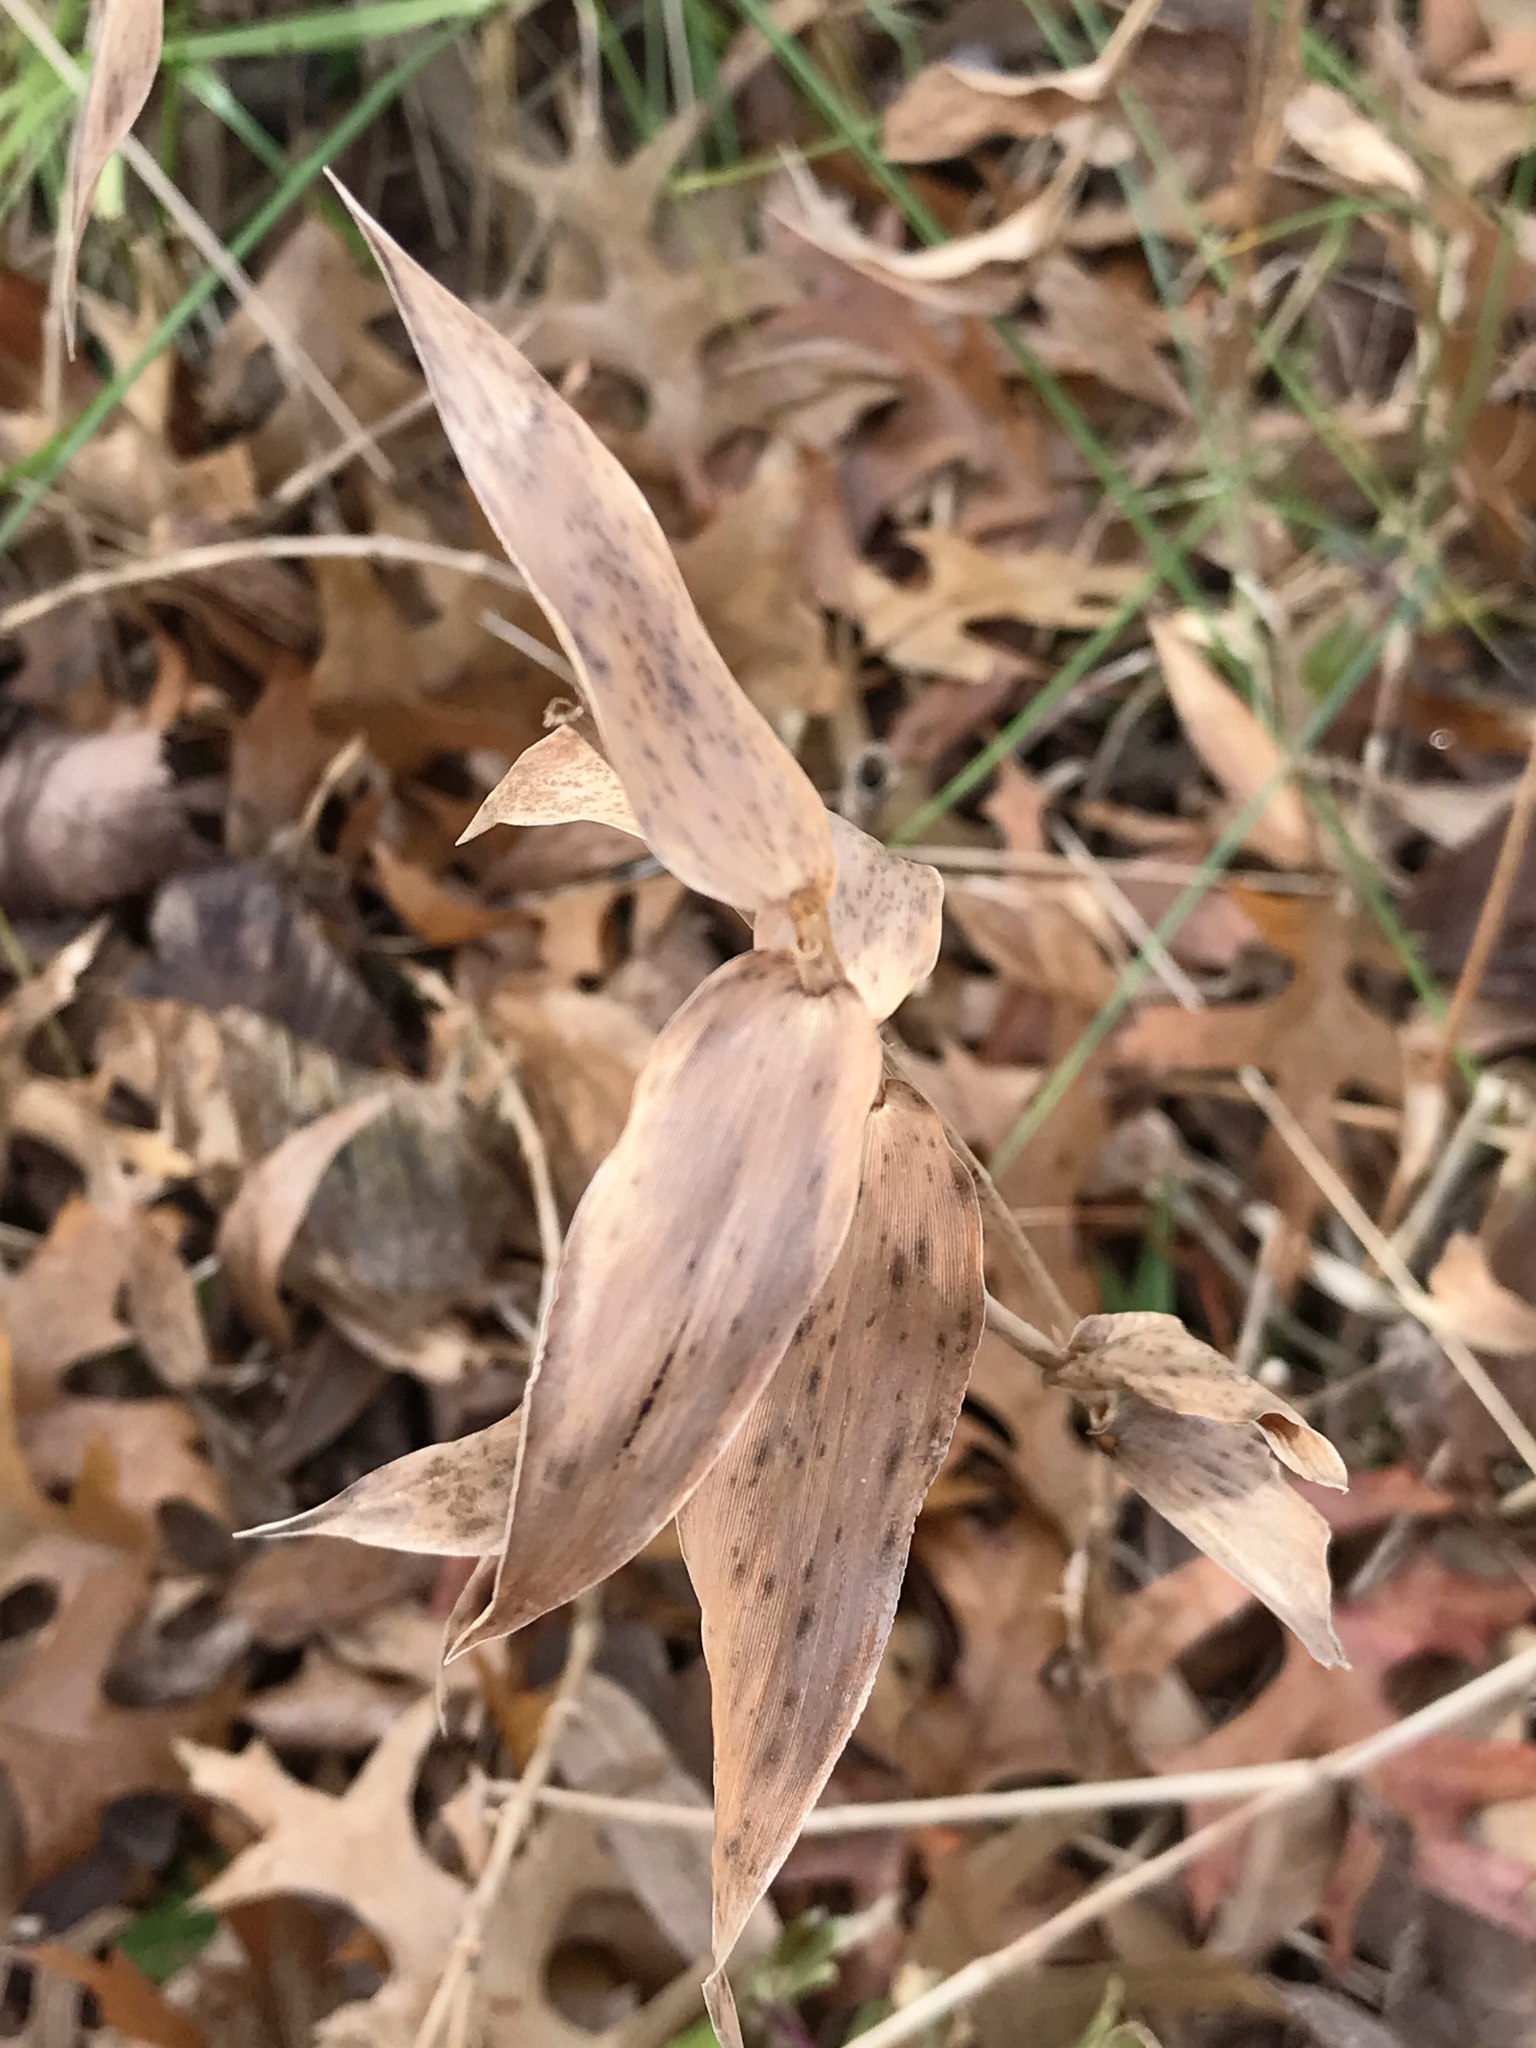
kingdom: Plantae
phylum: Tracheophyta
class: Liliopsida
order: Poales
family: Poaceae
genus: Dichanthelium
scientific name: Dichanthelium clandestinum
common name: Deer-tongue grass
